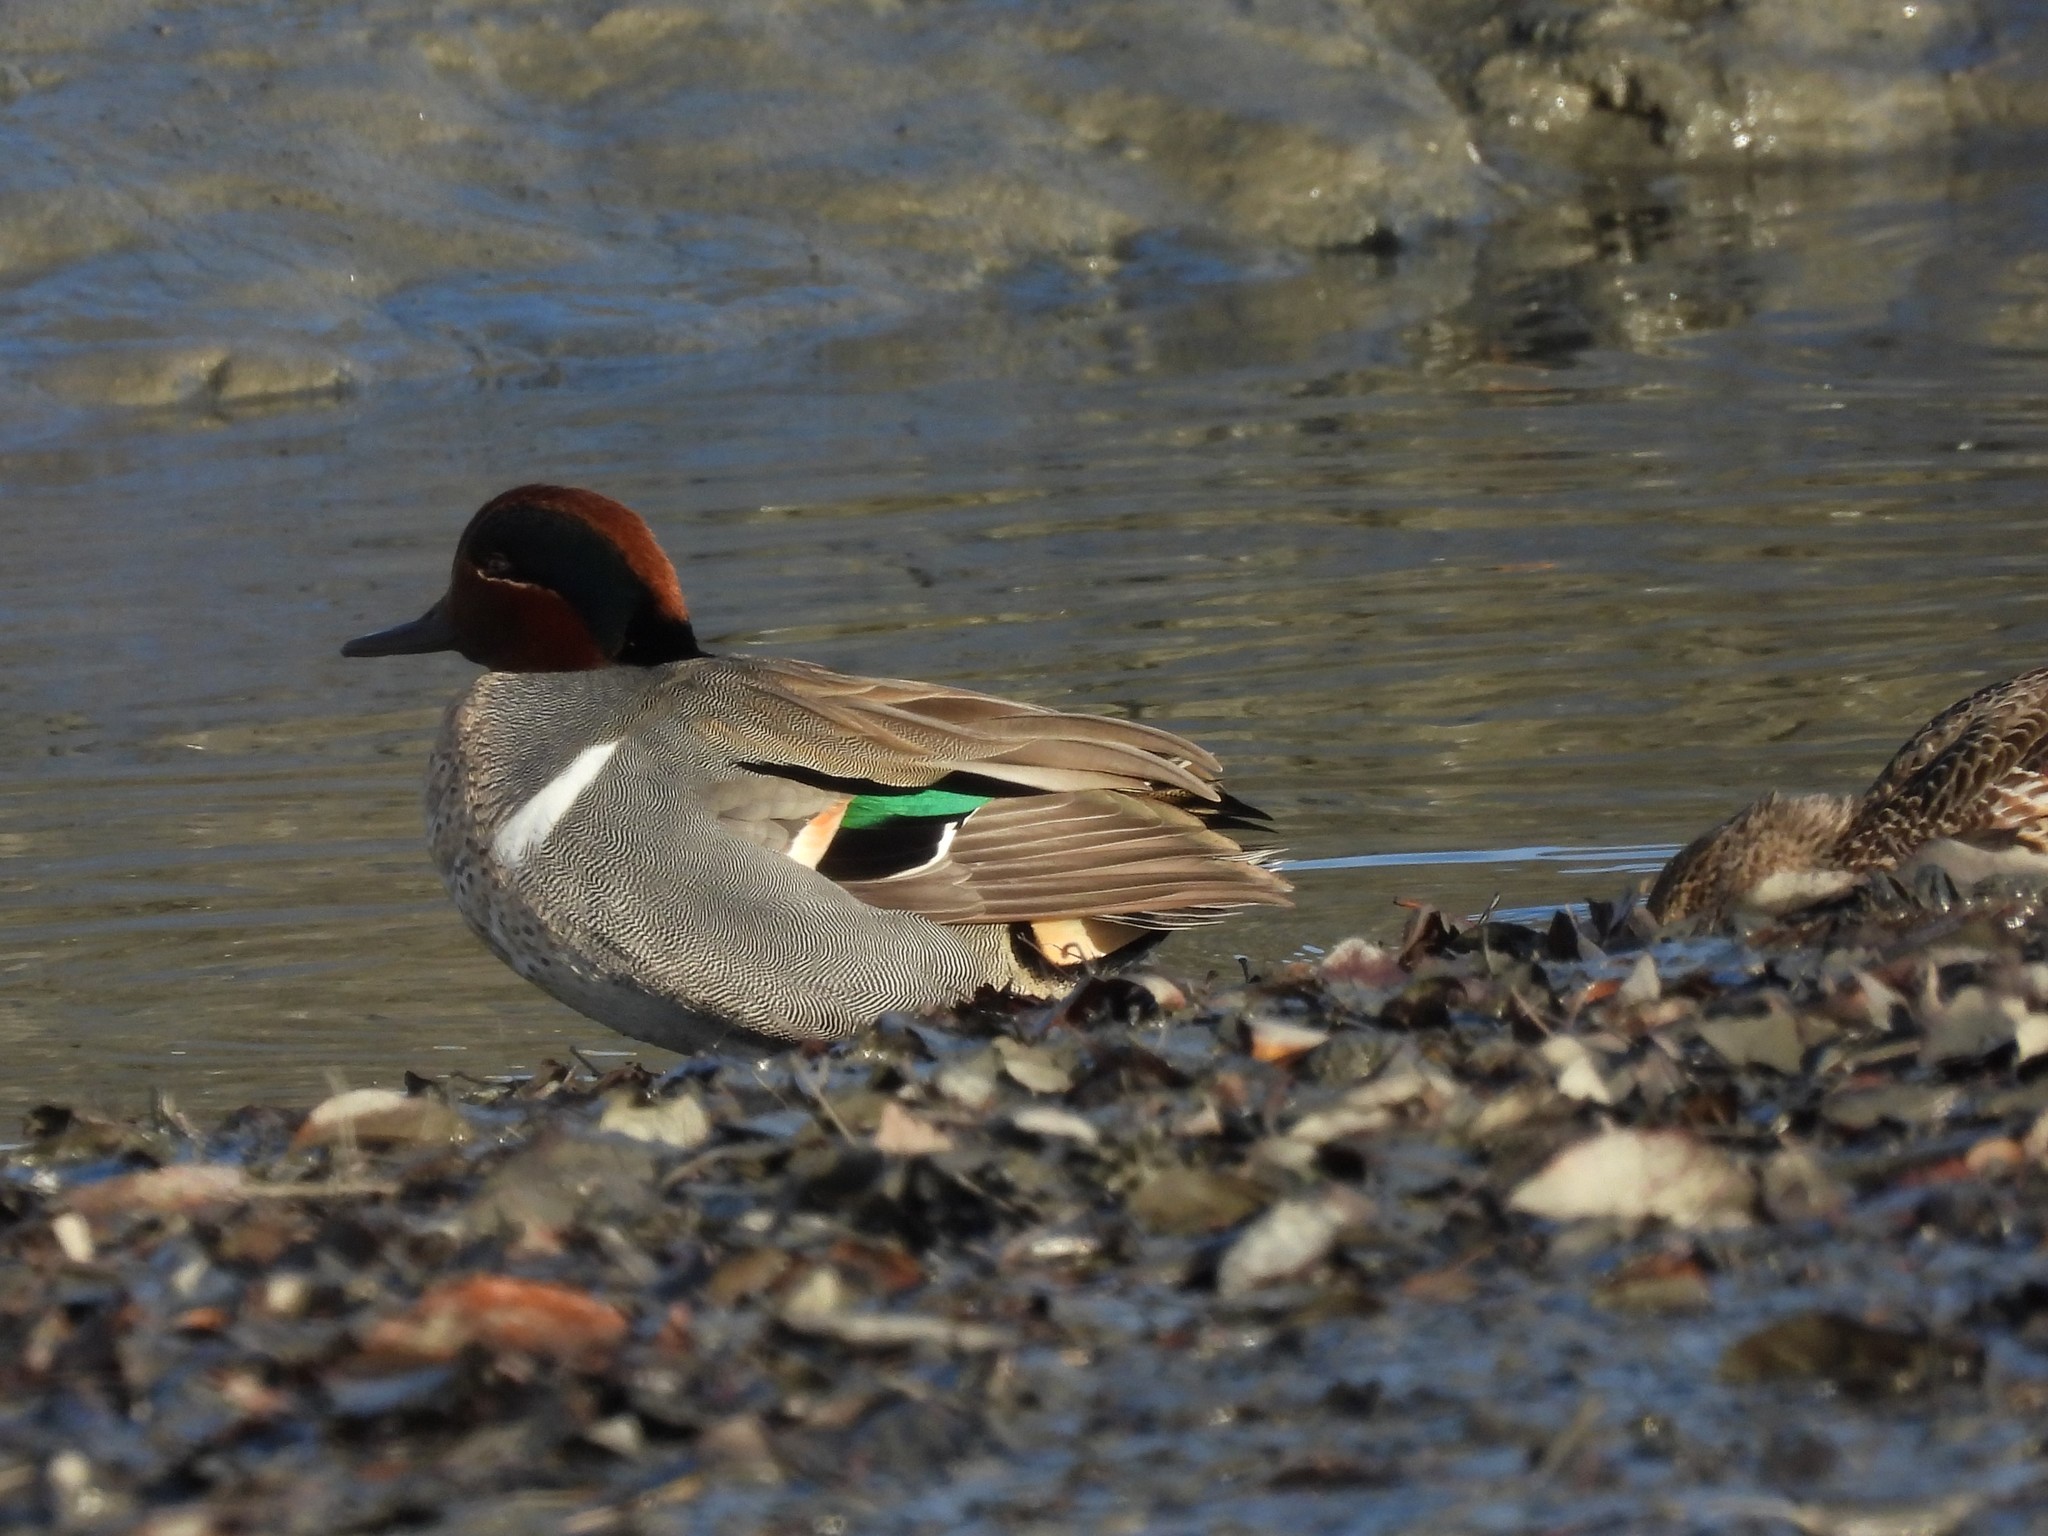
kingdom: Animalia
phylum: Chordata
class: Aves
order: Anseriformes
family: Anatidae
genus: Anas
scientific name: Anas crecca
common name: Eurasian teal
